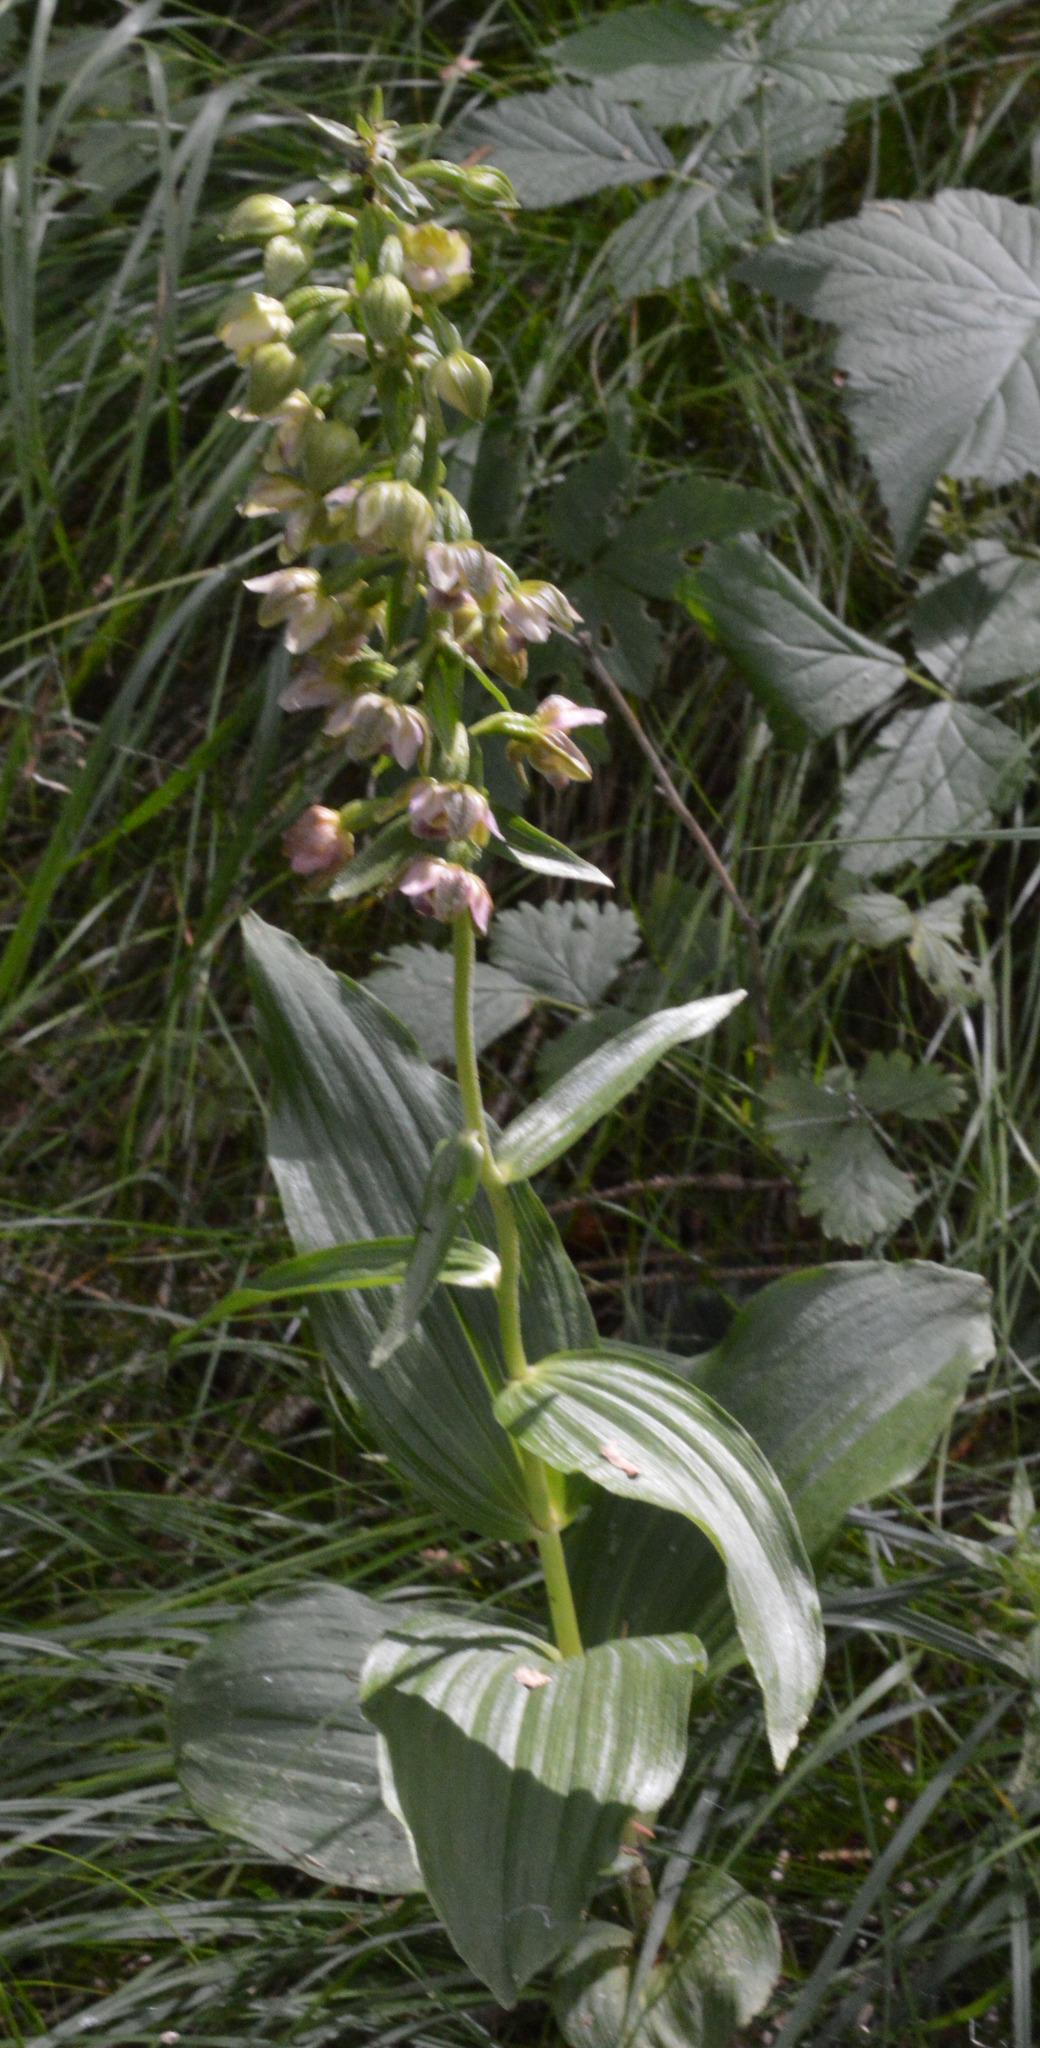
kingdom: Plantae
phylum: Tracheophyta
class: Liliopsida
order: Asparagales
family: Orchidaceae
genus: Epipactis
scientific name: Epipactis helleborine
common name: Broad-leaved helleborine
